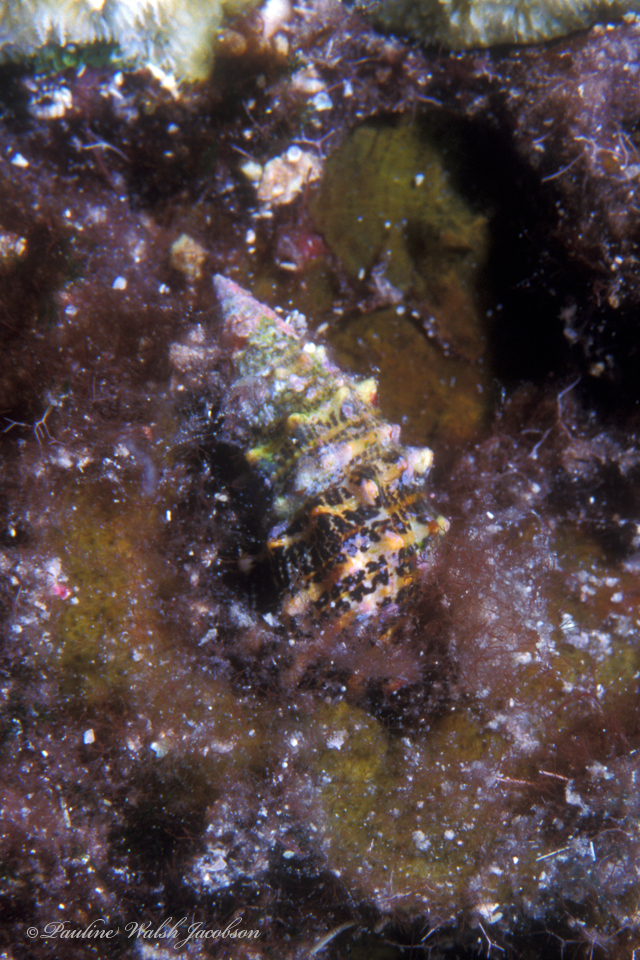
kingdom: Animalia
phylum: Mollusca
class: Gastropoda
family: Cerithiidae
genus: Cerithium
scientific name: Cerithium litteratum
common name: Stocky cerith
